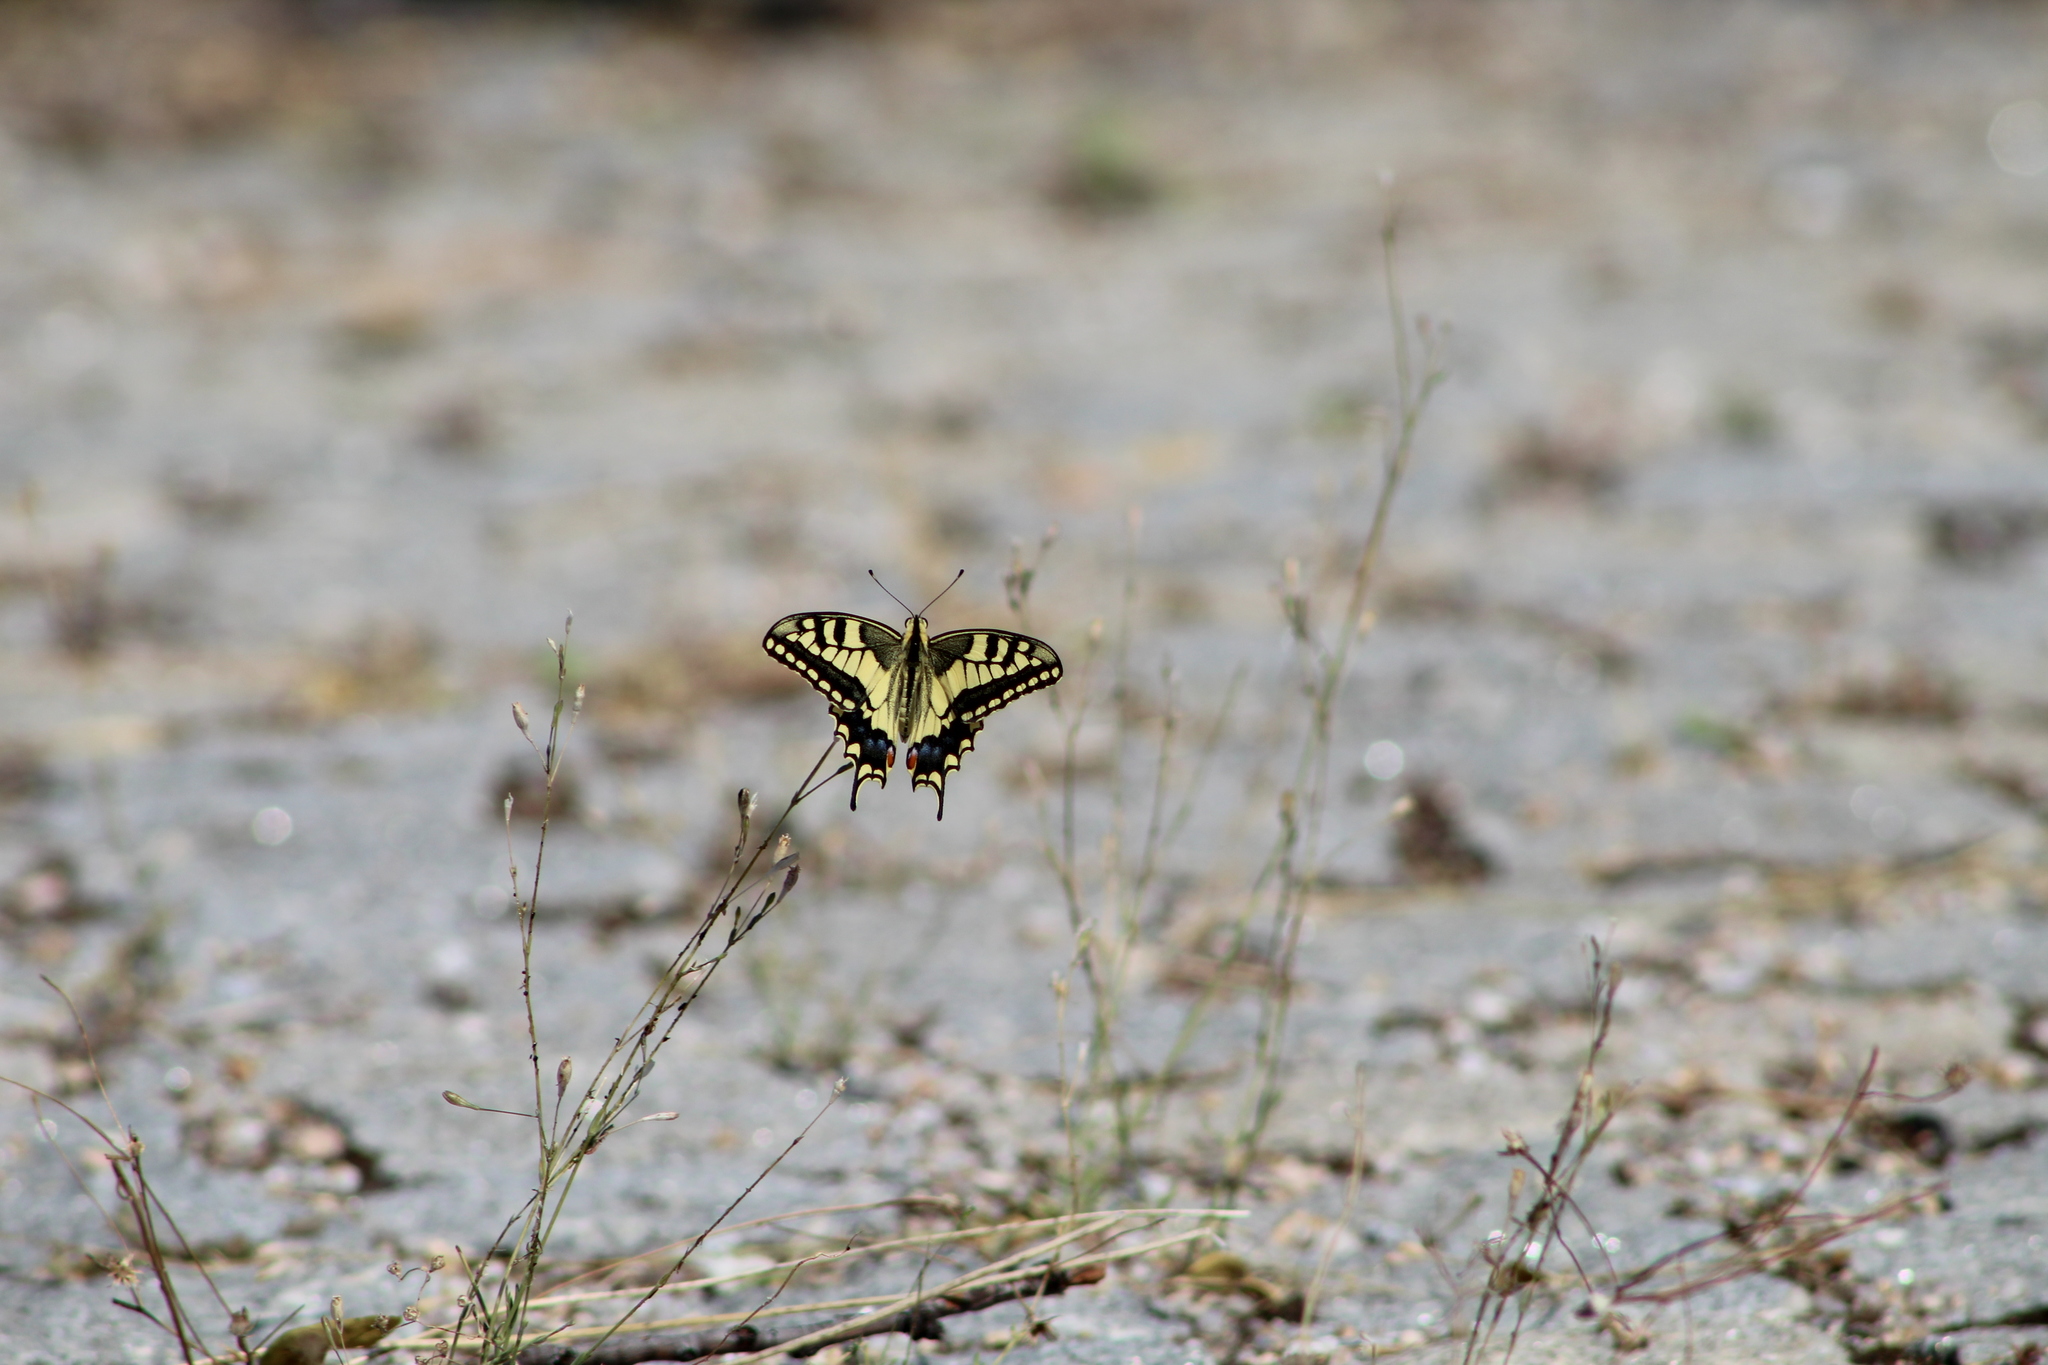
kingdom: Animalia
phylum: Arthropoda
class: Insecta
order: Lepidoptera
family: Papilionidae
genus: Papilio
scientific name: Papilio machaon
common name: Swallowtail
